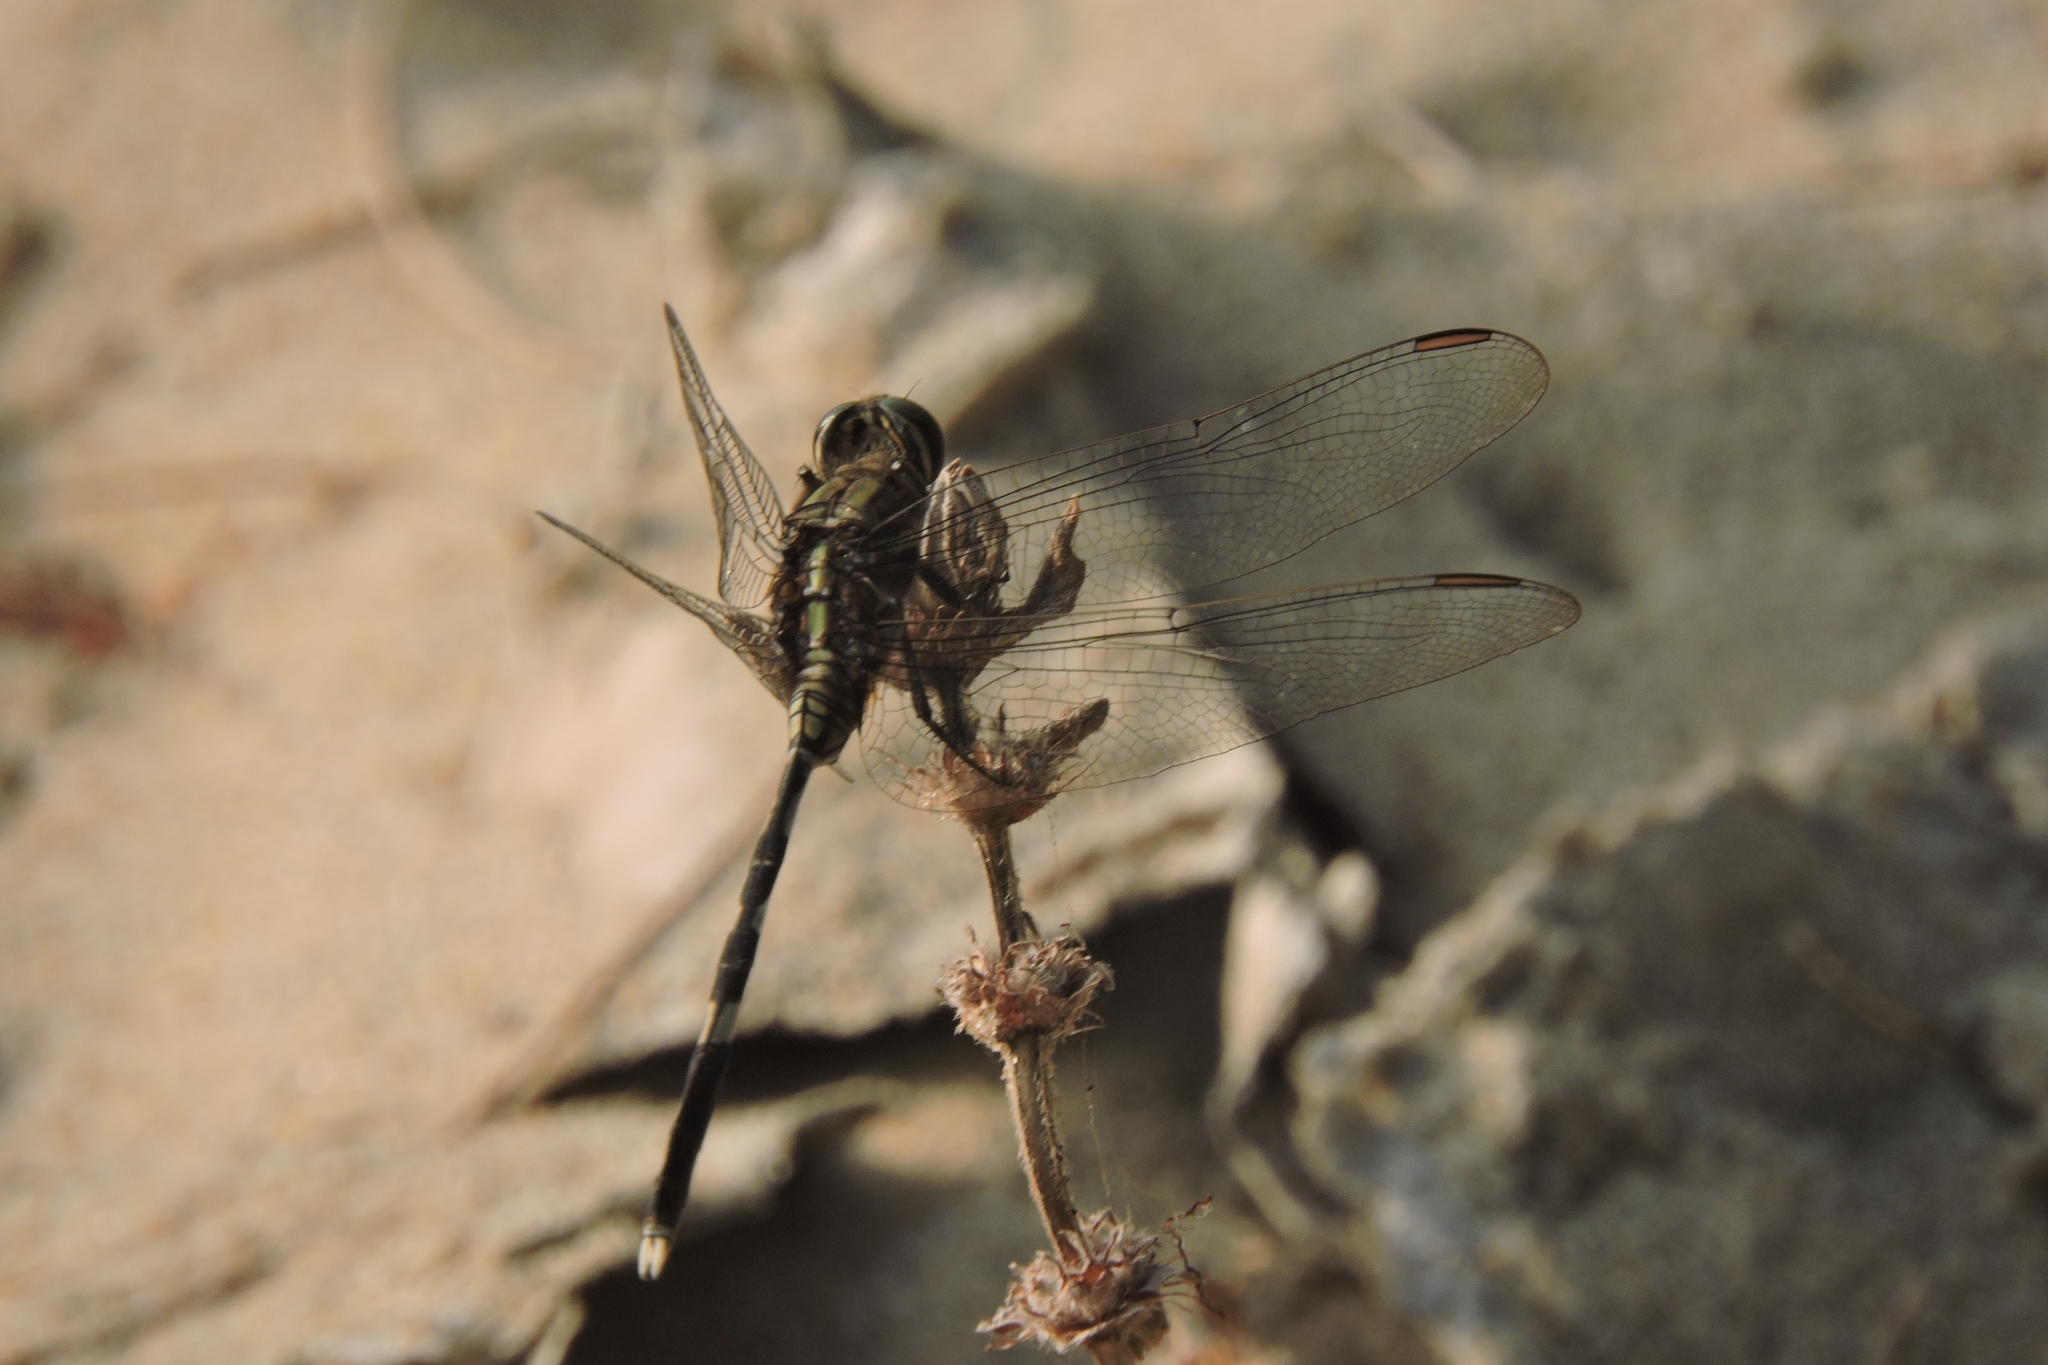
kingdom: Animalia
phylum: Arthropoda
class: Insecta
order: Odonata
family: Libellulidae
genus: Orthetrum
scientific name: Orthetrum sabina
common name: Slender skimmer
